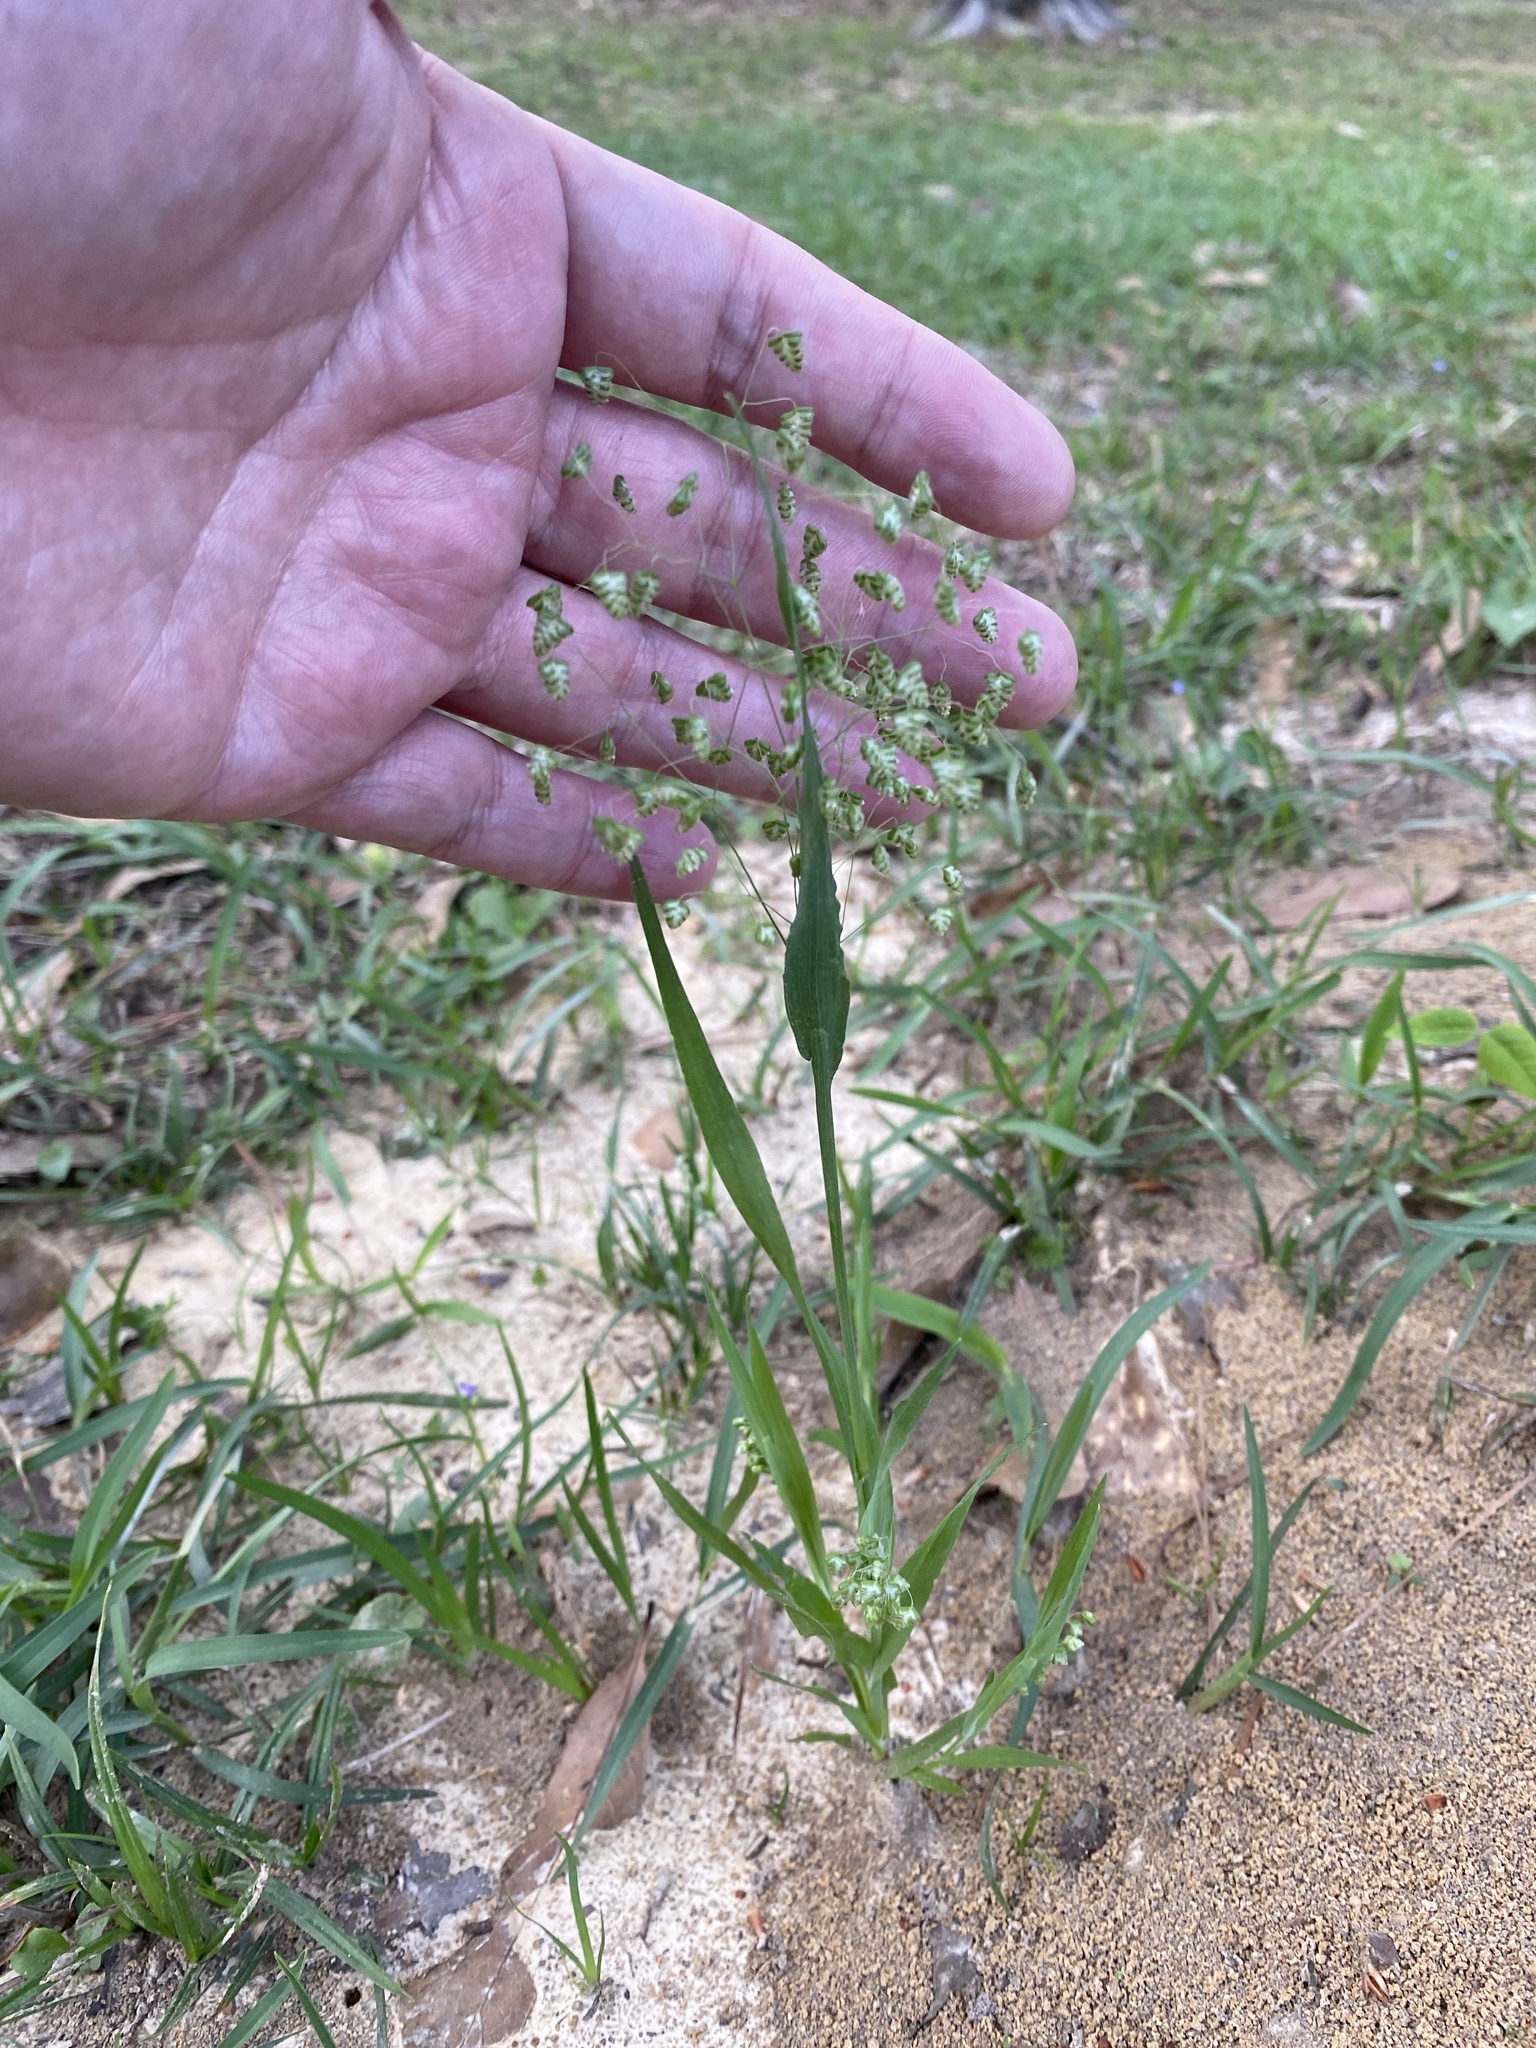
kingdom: Plantae
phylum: Tracheophyta
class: Liliopsida
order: Poales
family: Poaceae
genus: Briza
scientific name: Briza minor
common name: Lesser quaking-grass
